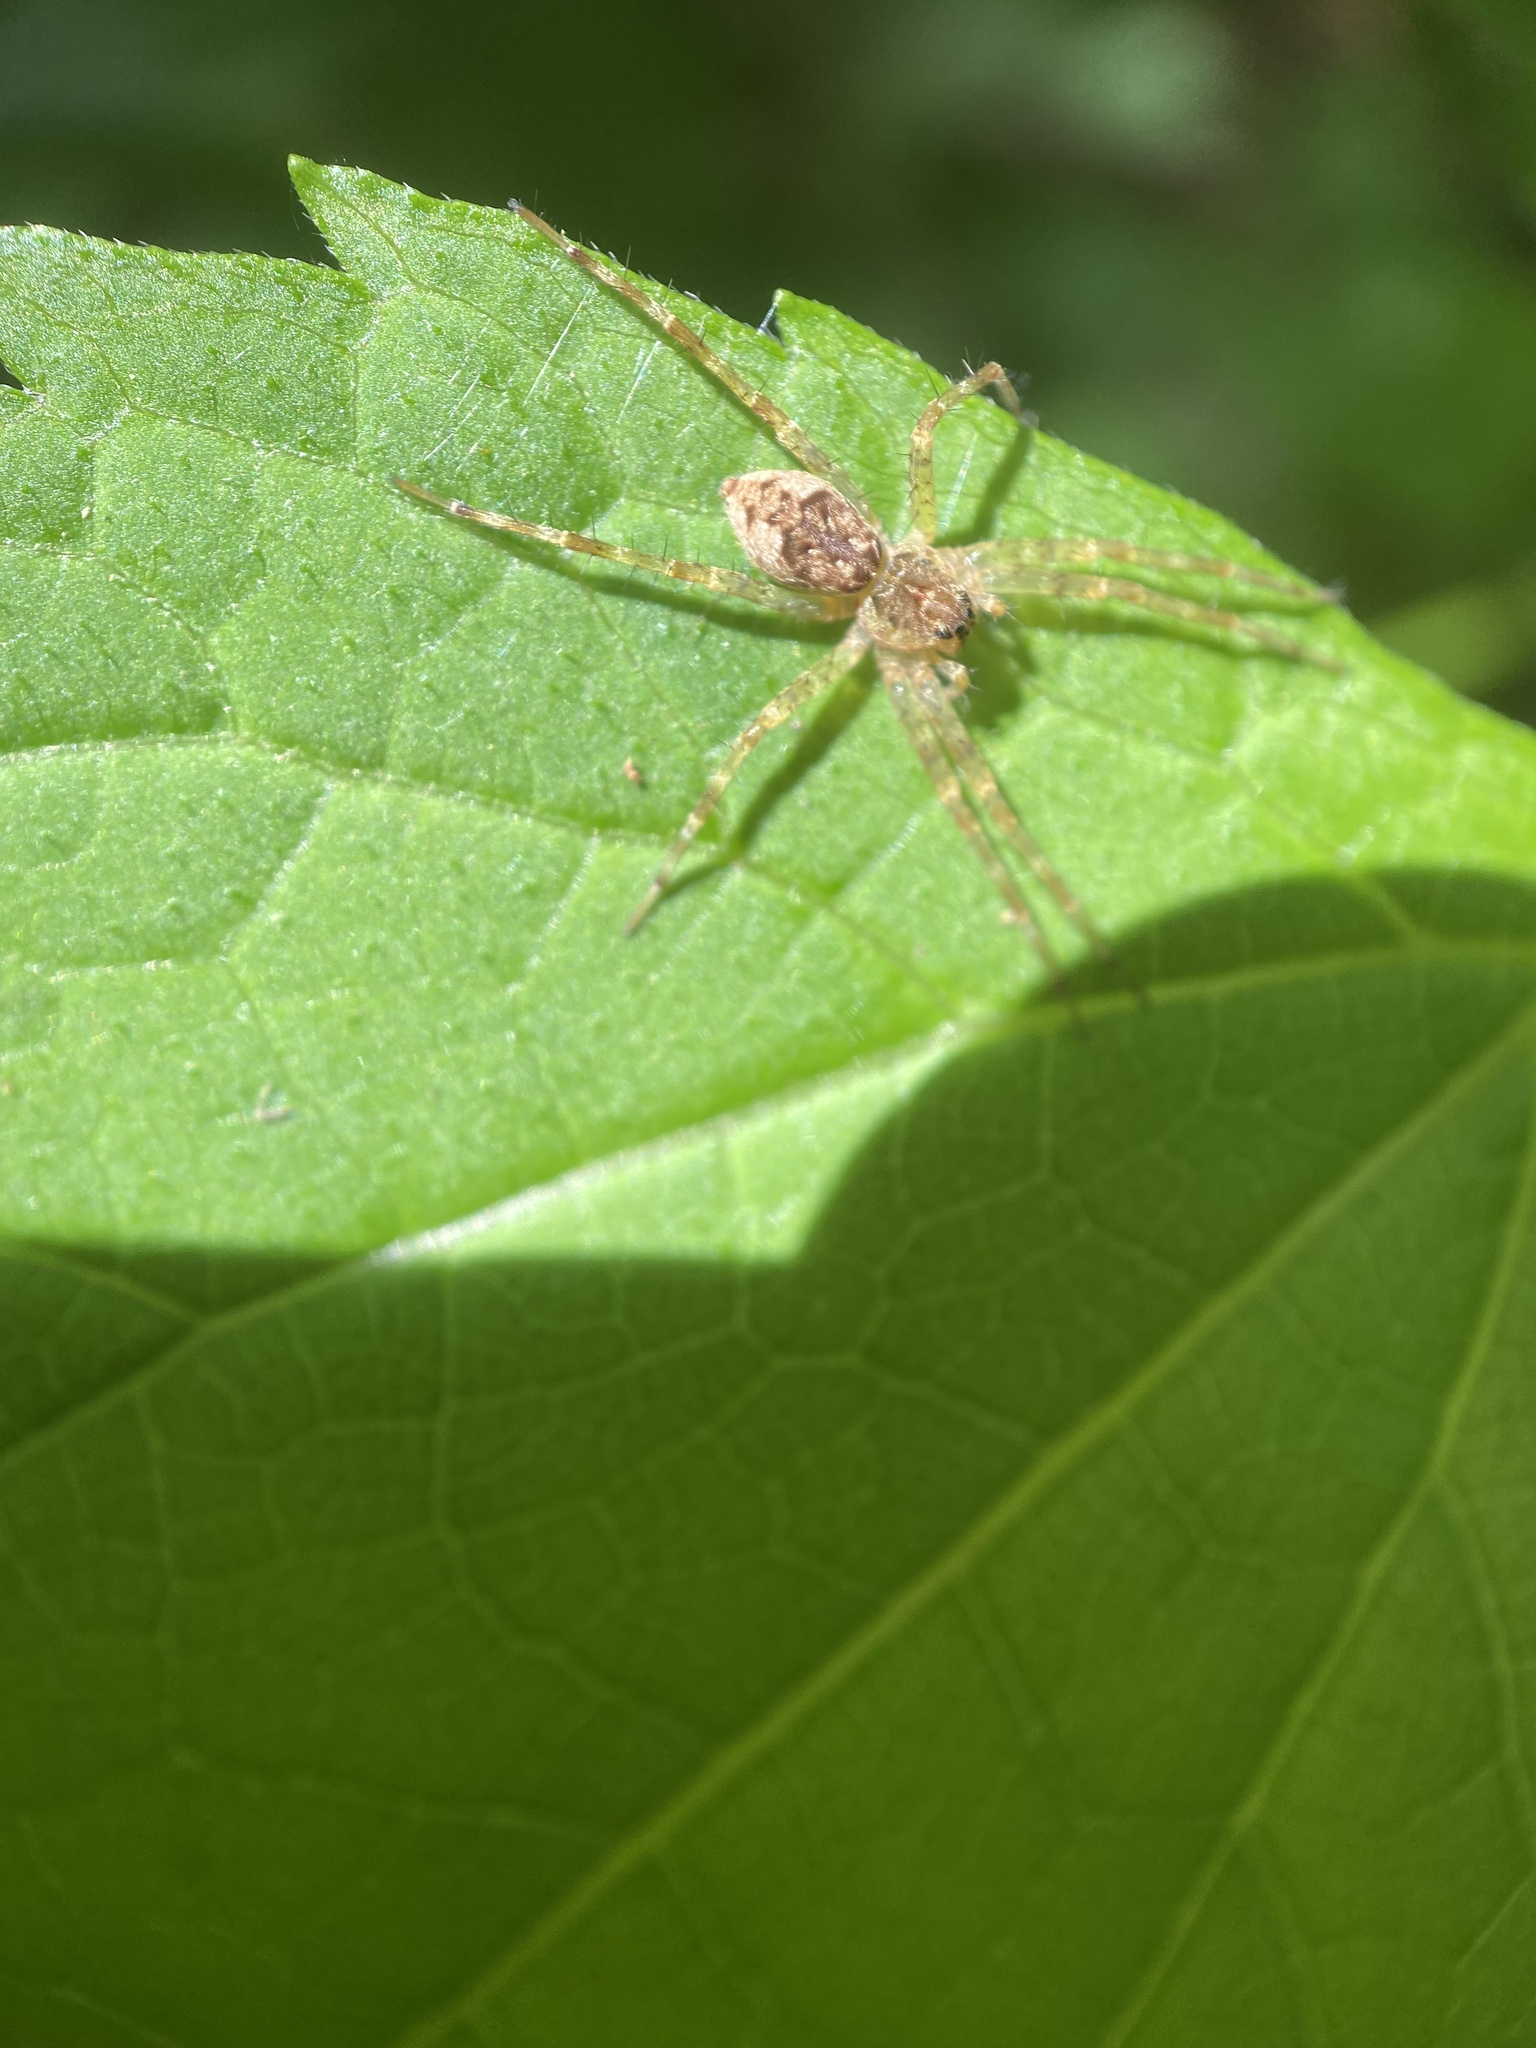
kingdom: Animalia
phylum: Arthropoda
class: Arachnida
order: Araneae
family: Pisauridae
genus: Dolomedes
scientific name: Dolomedes tenebrosus
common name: Dark fishing spider
